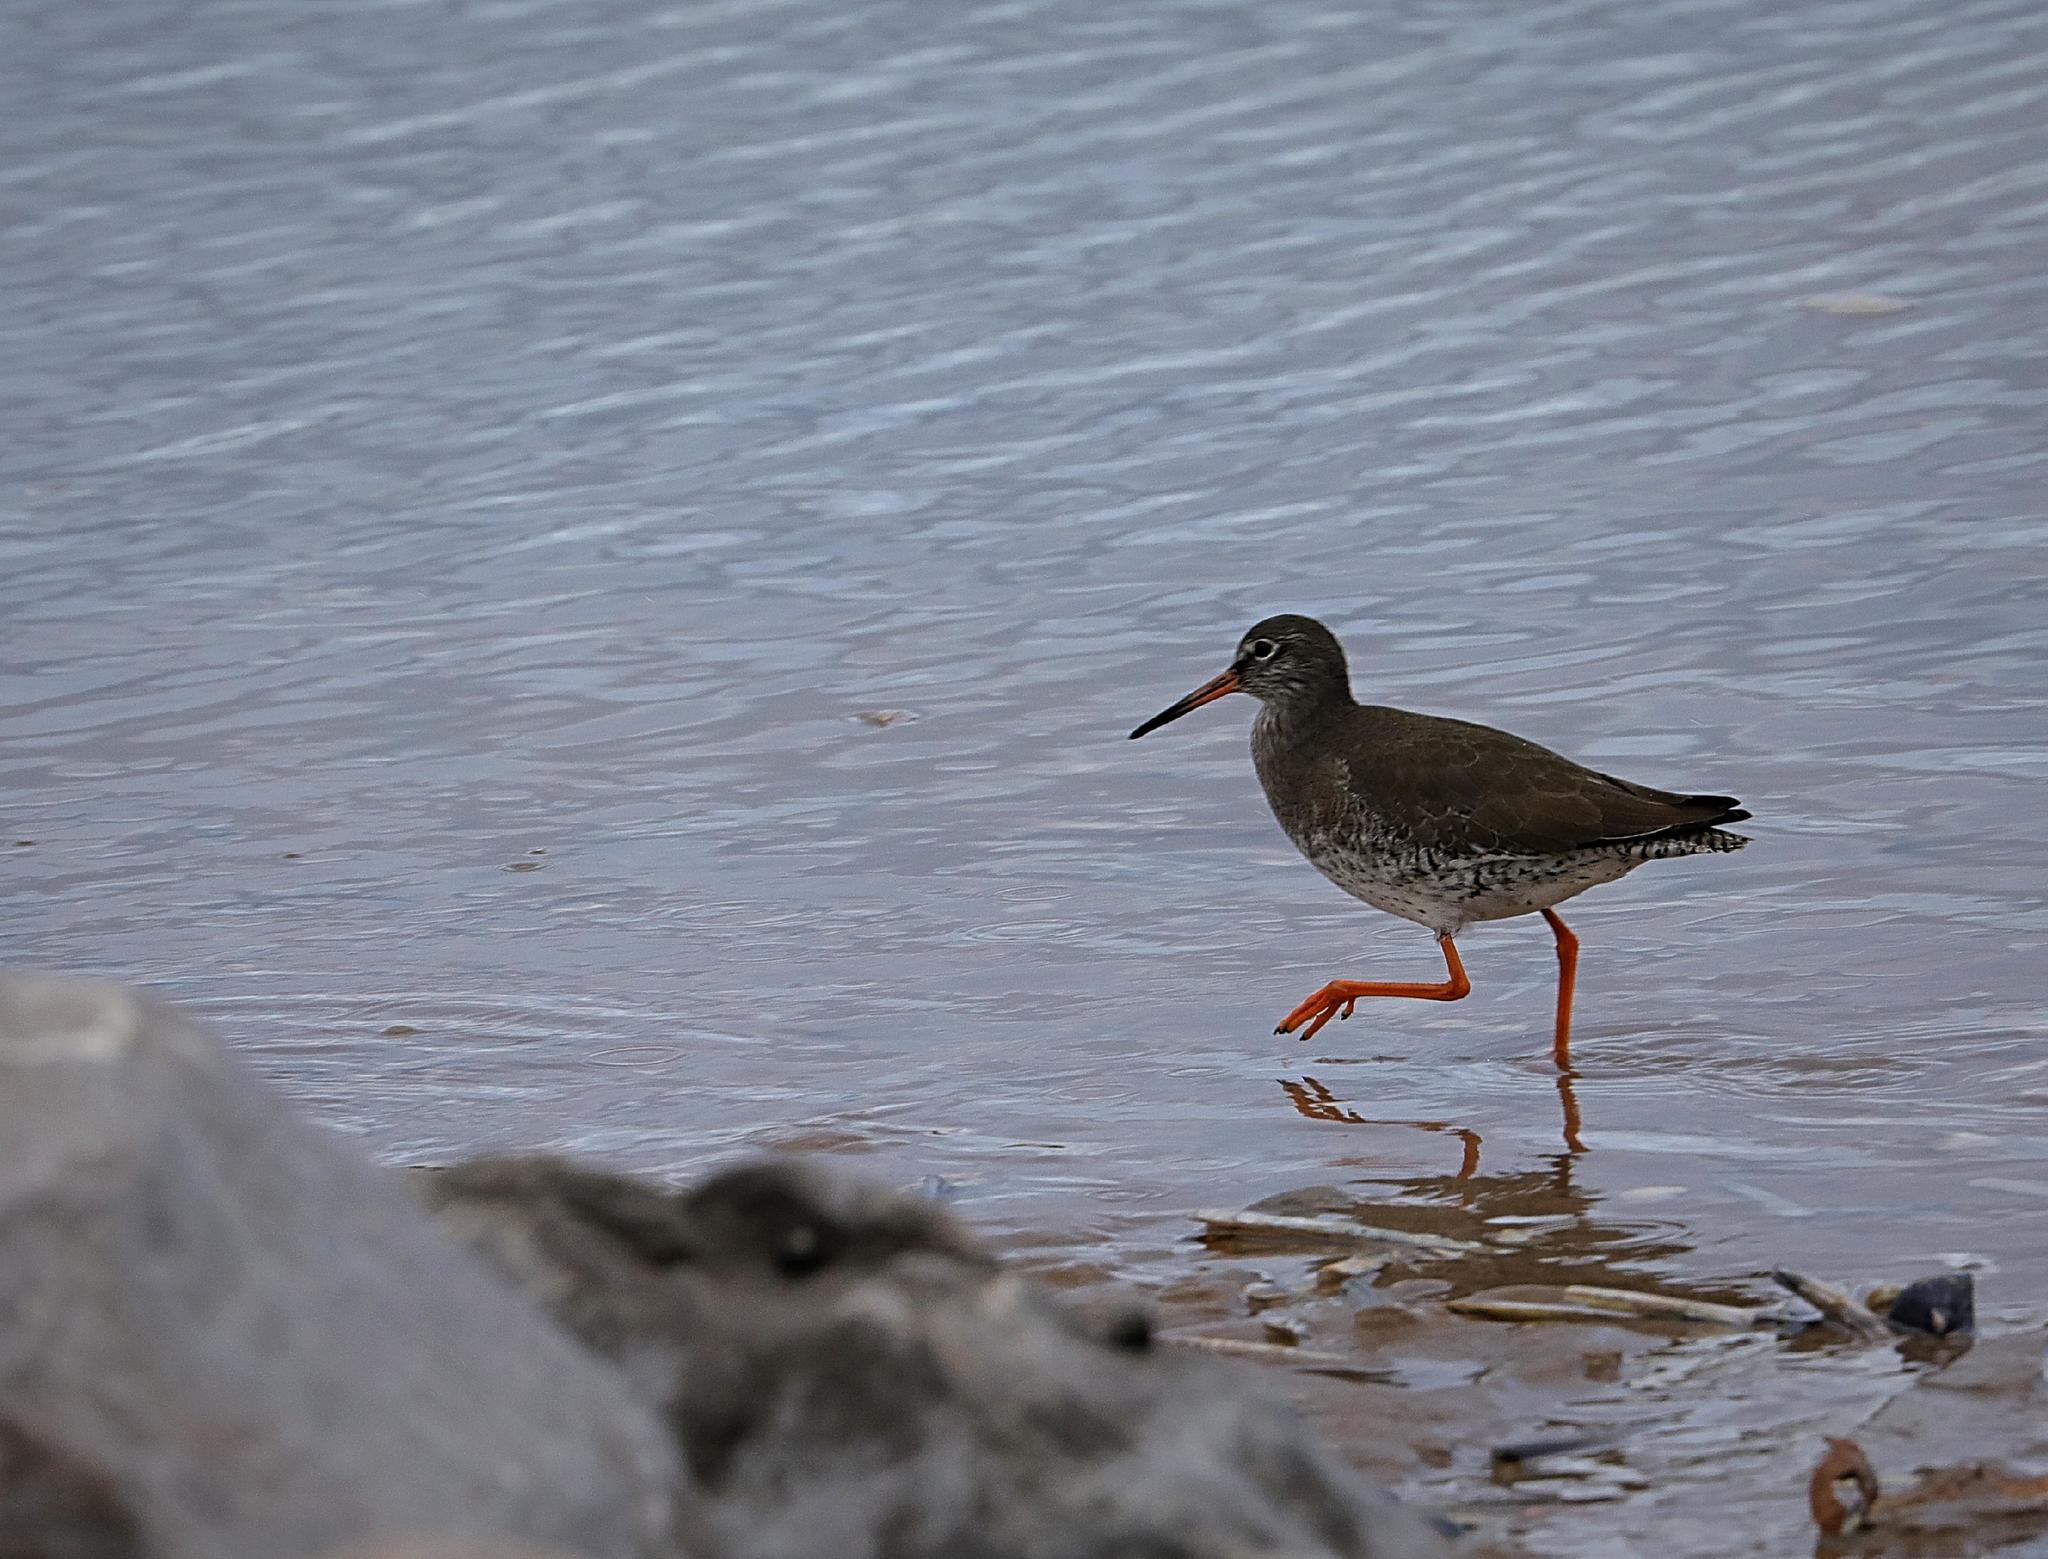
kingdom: Animalia
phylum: Chordata
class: Aves
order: Charadriiformes
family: Scolopacidae
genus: Tringa
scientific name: Tringa totanus
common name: Common redshank
